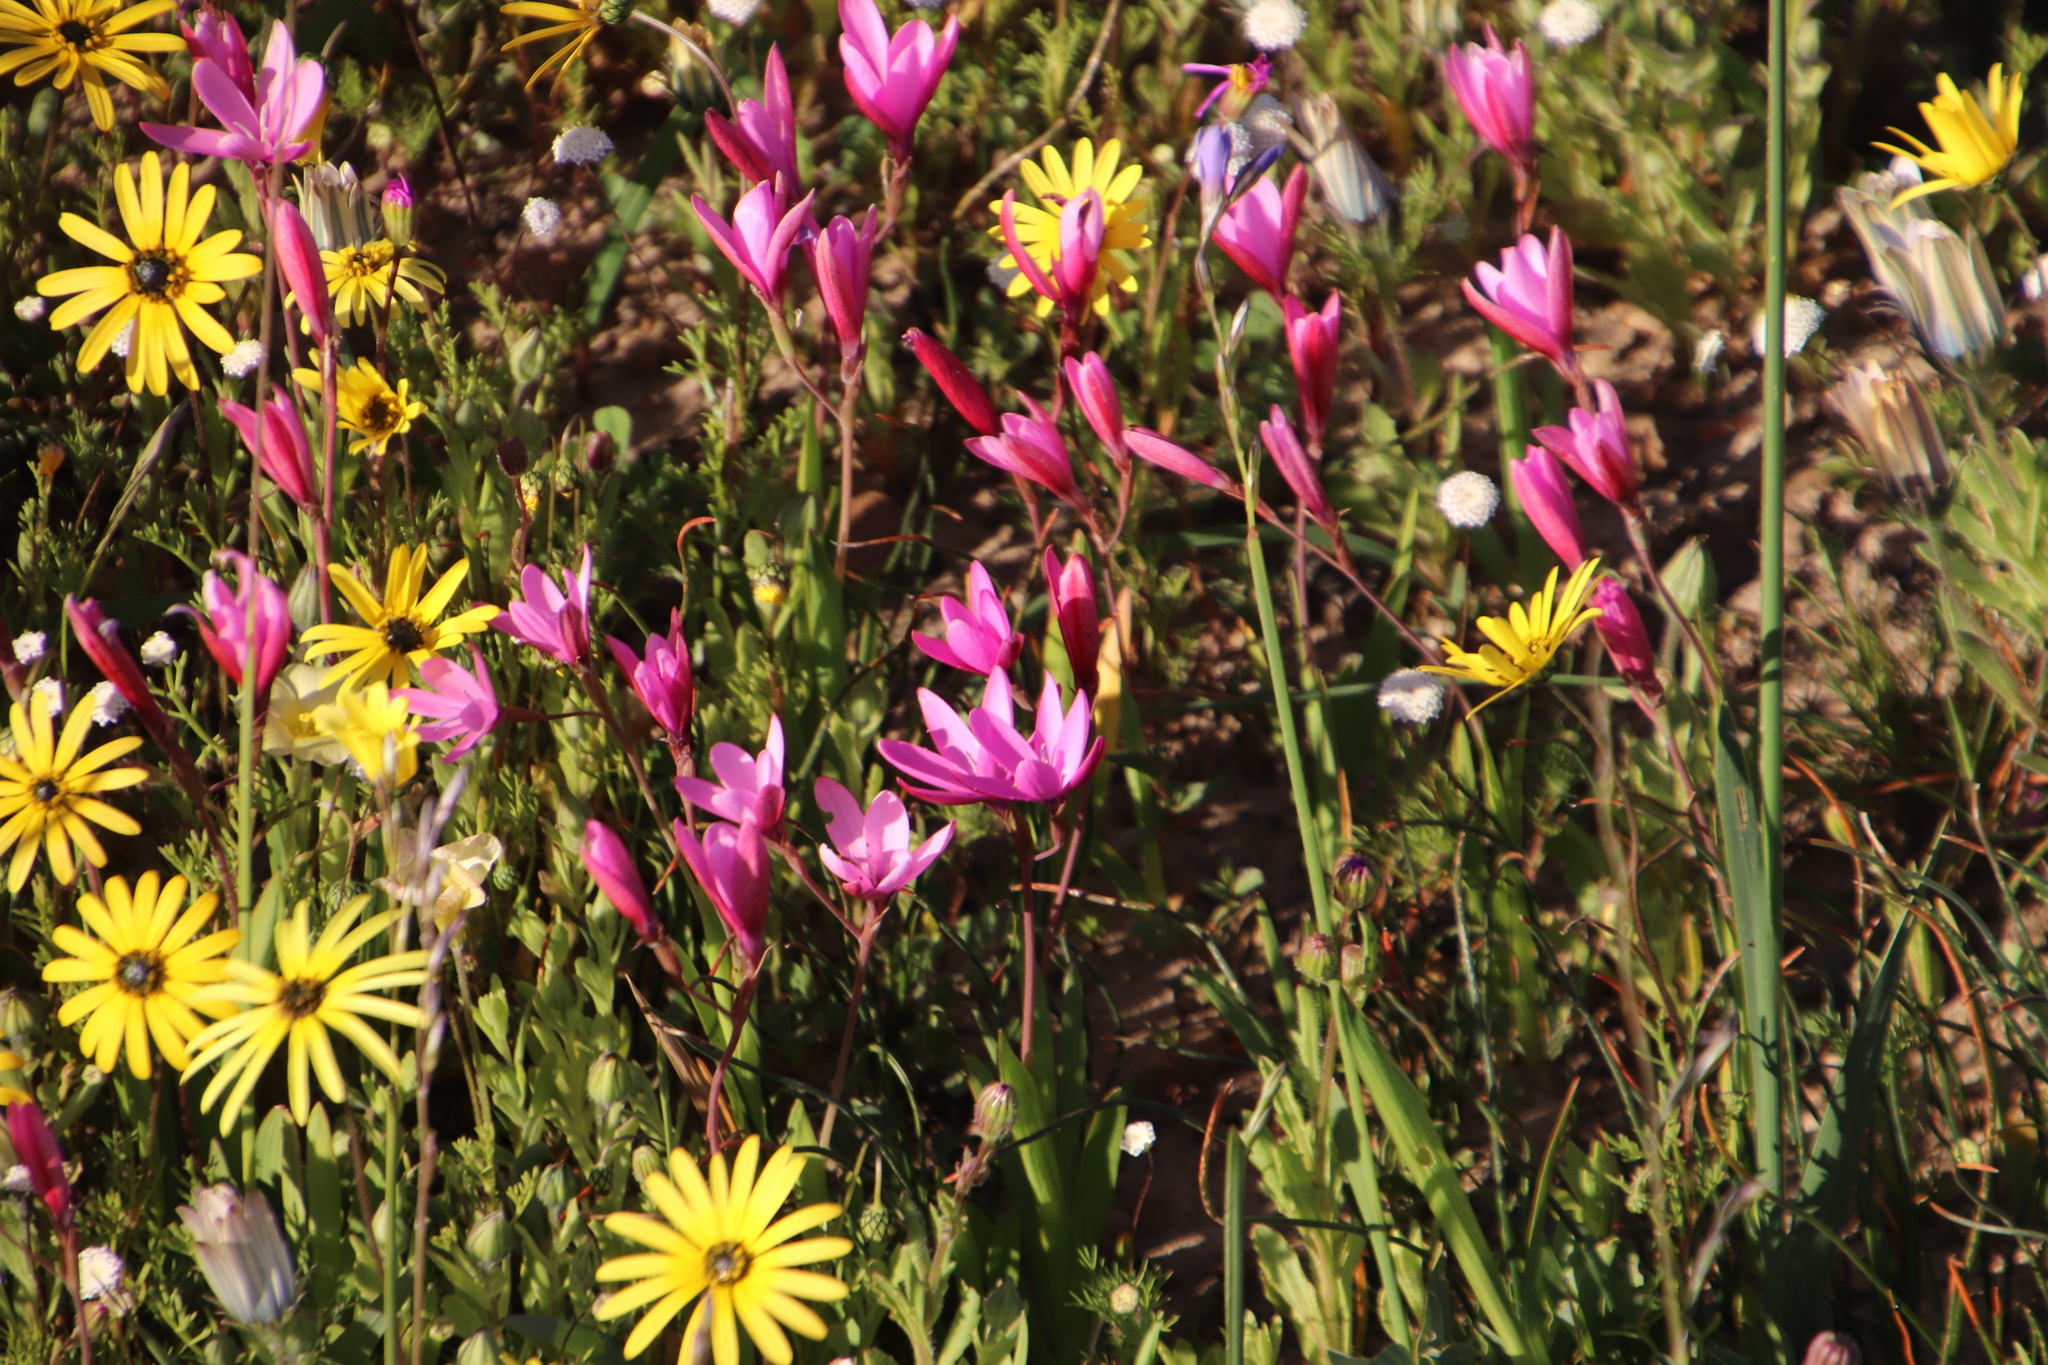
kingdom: Plantae
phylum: Tracheophyta
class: Liliopsida
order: Asparagales
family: Iridaceae
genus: Hesperantha
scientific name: Hesperantha pauciflora
